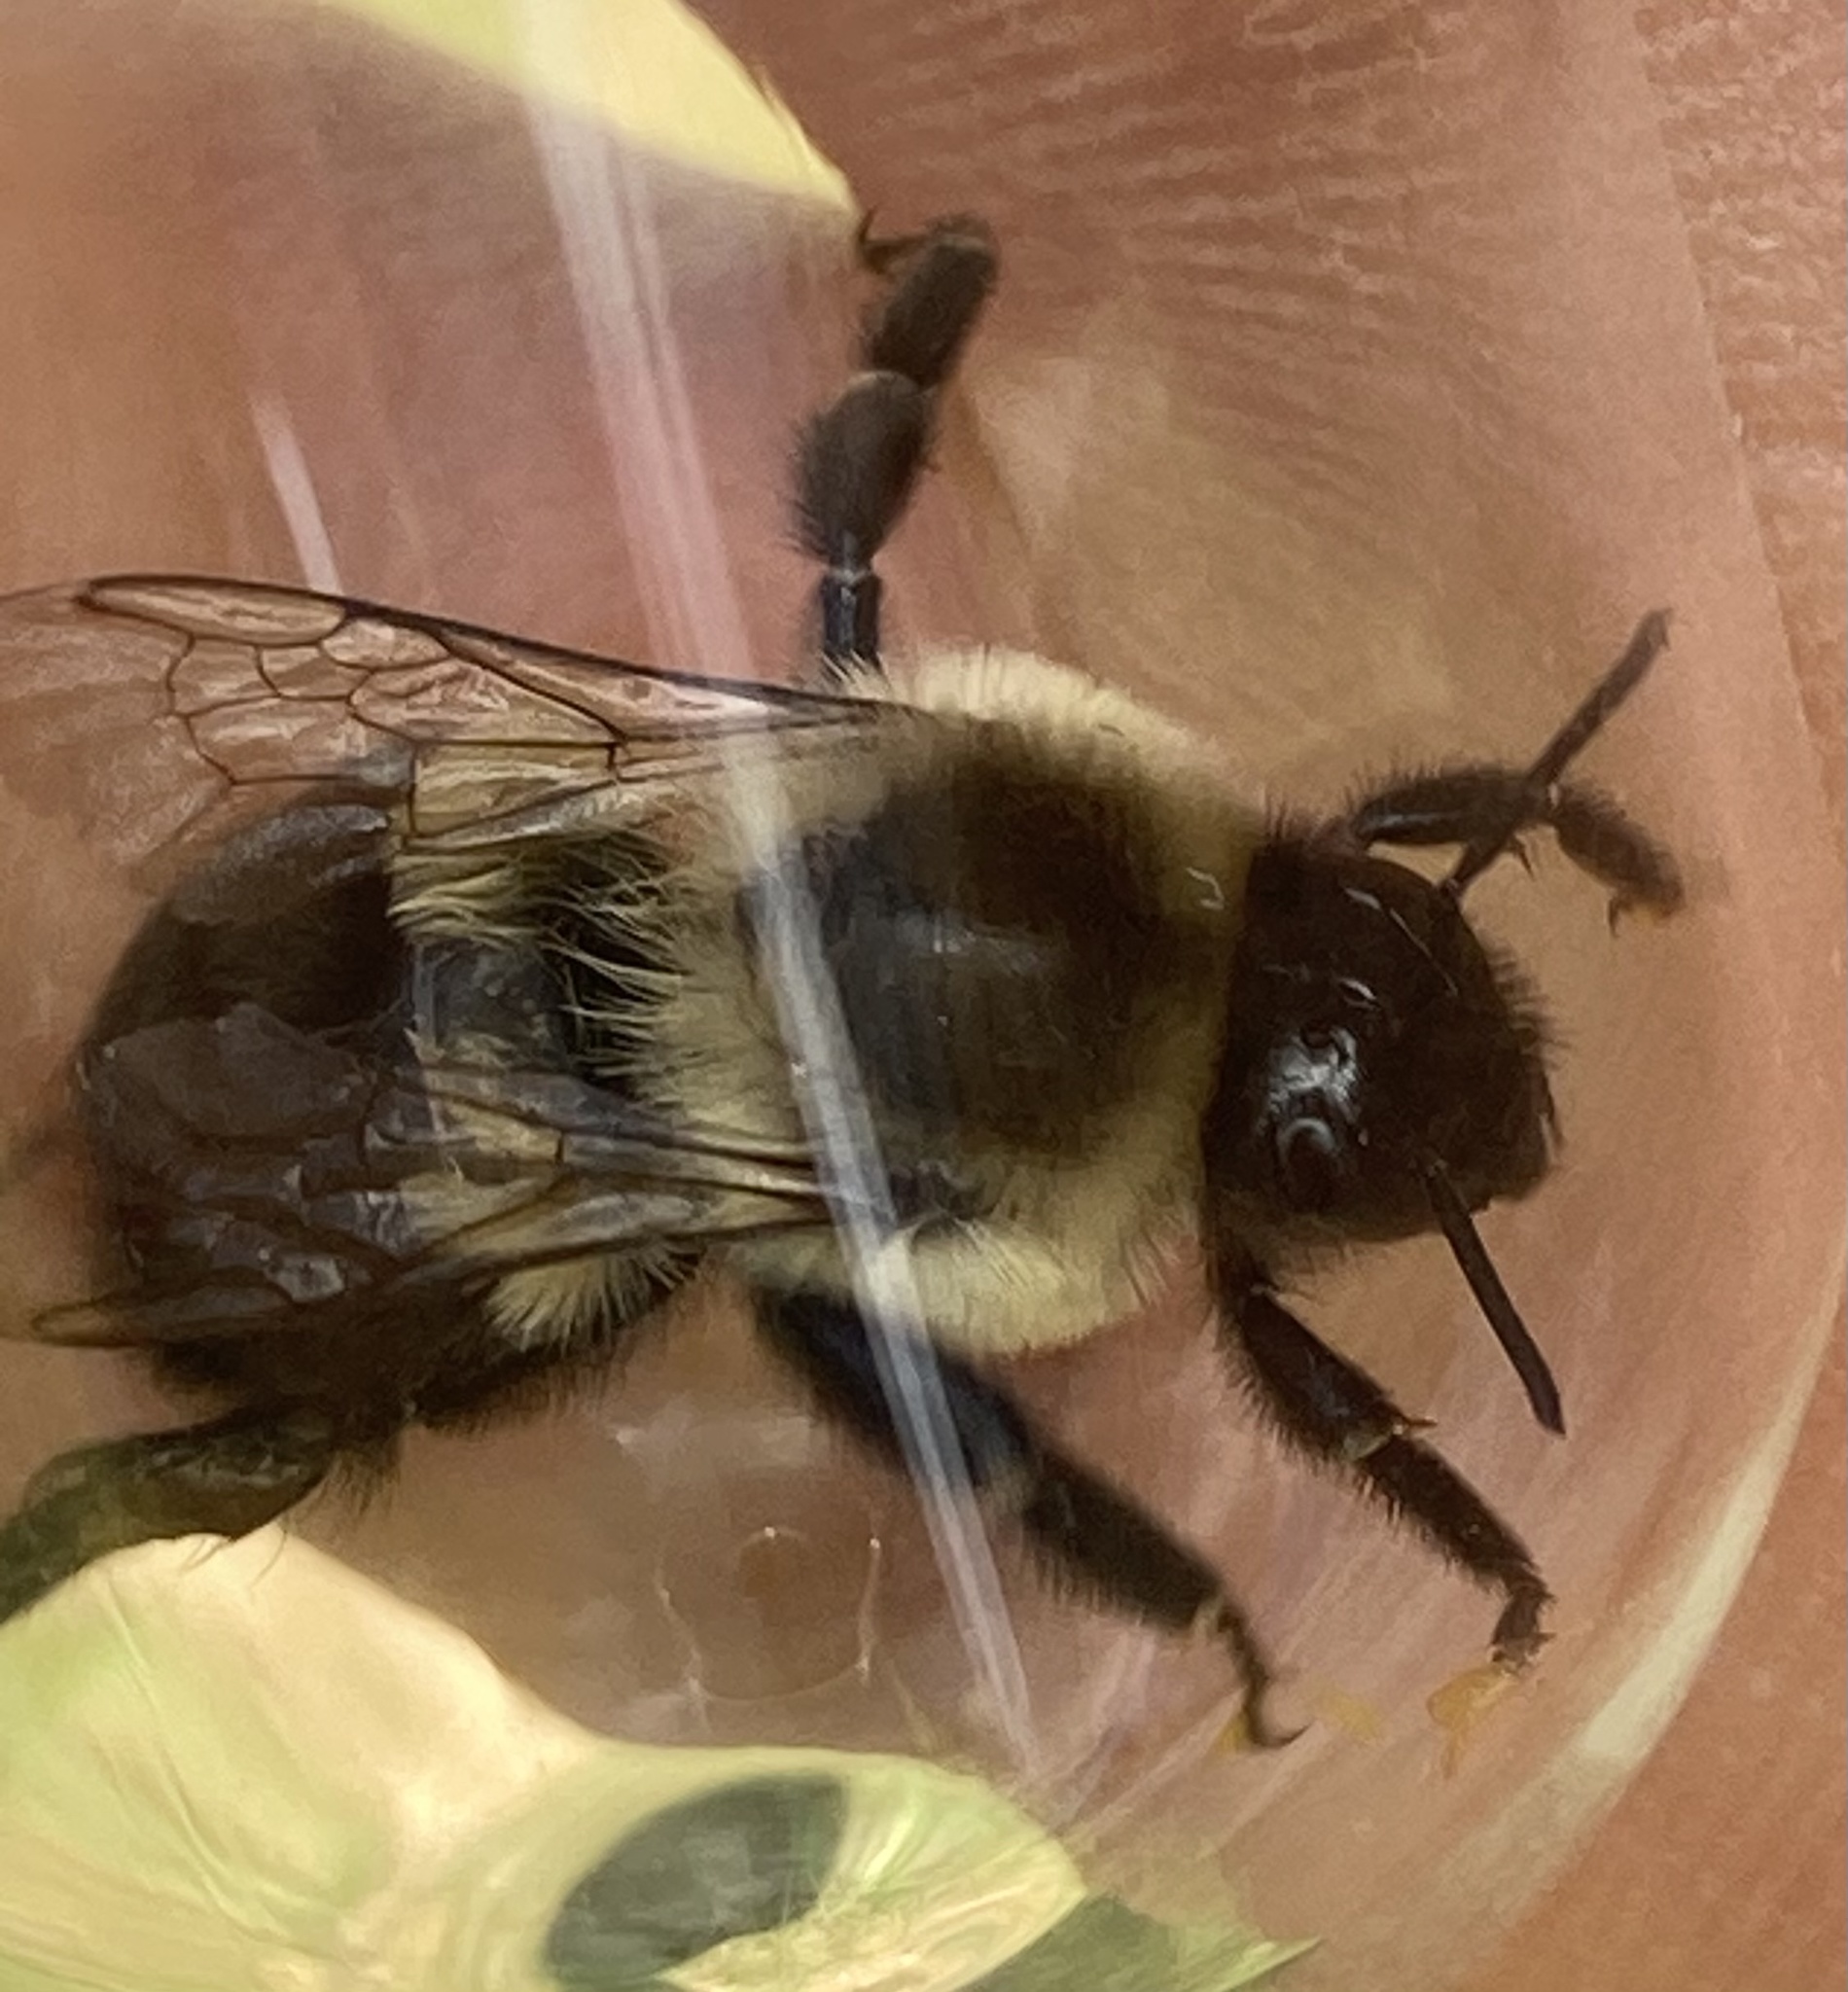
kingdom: Animalia
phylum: Arthropoda
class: Insecta
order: Hymenoptera
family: Apidae
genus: Bombus
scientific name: Bombus impatiens
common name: Common eastern bumble bee
